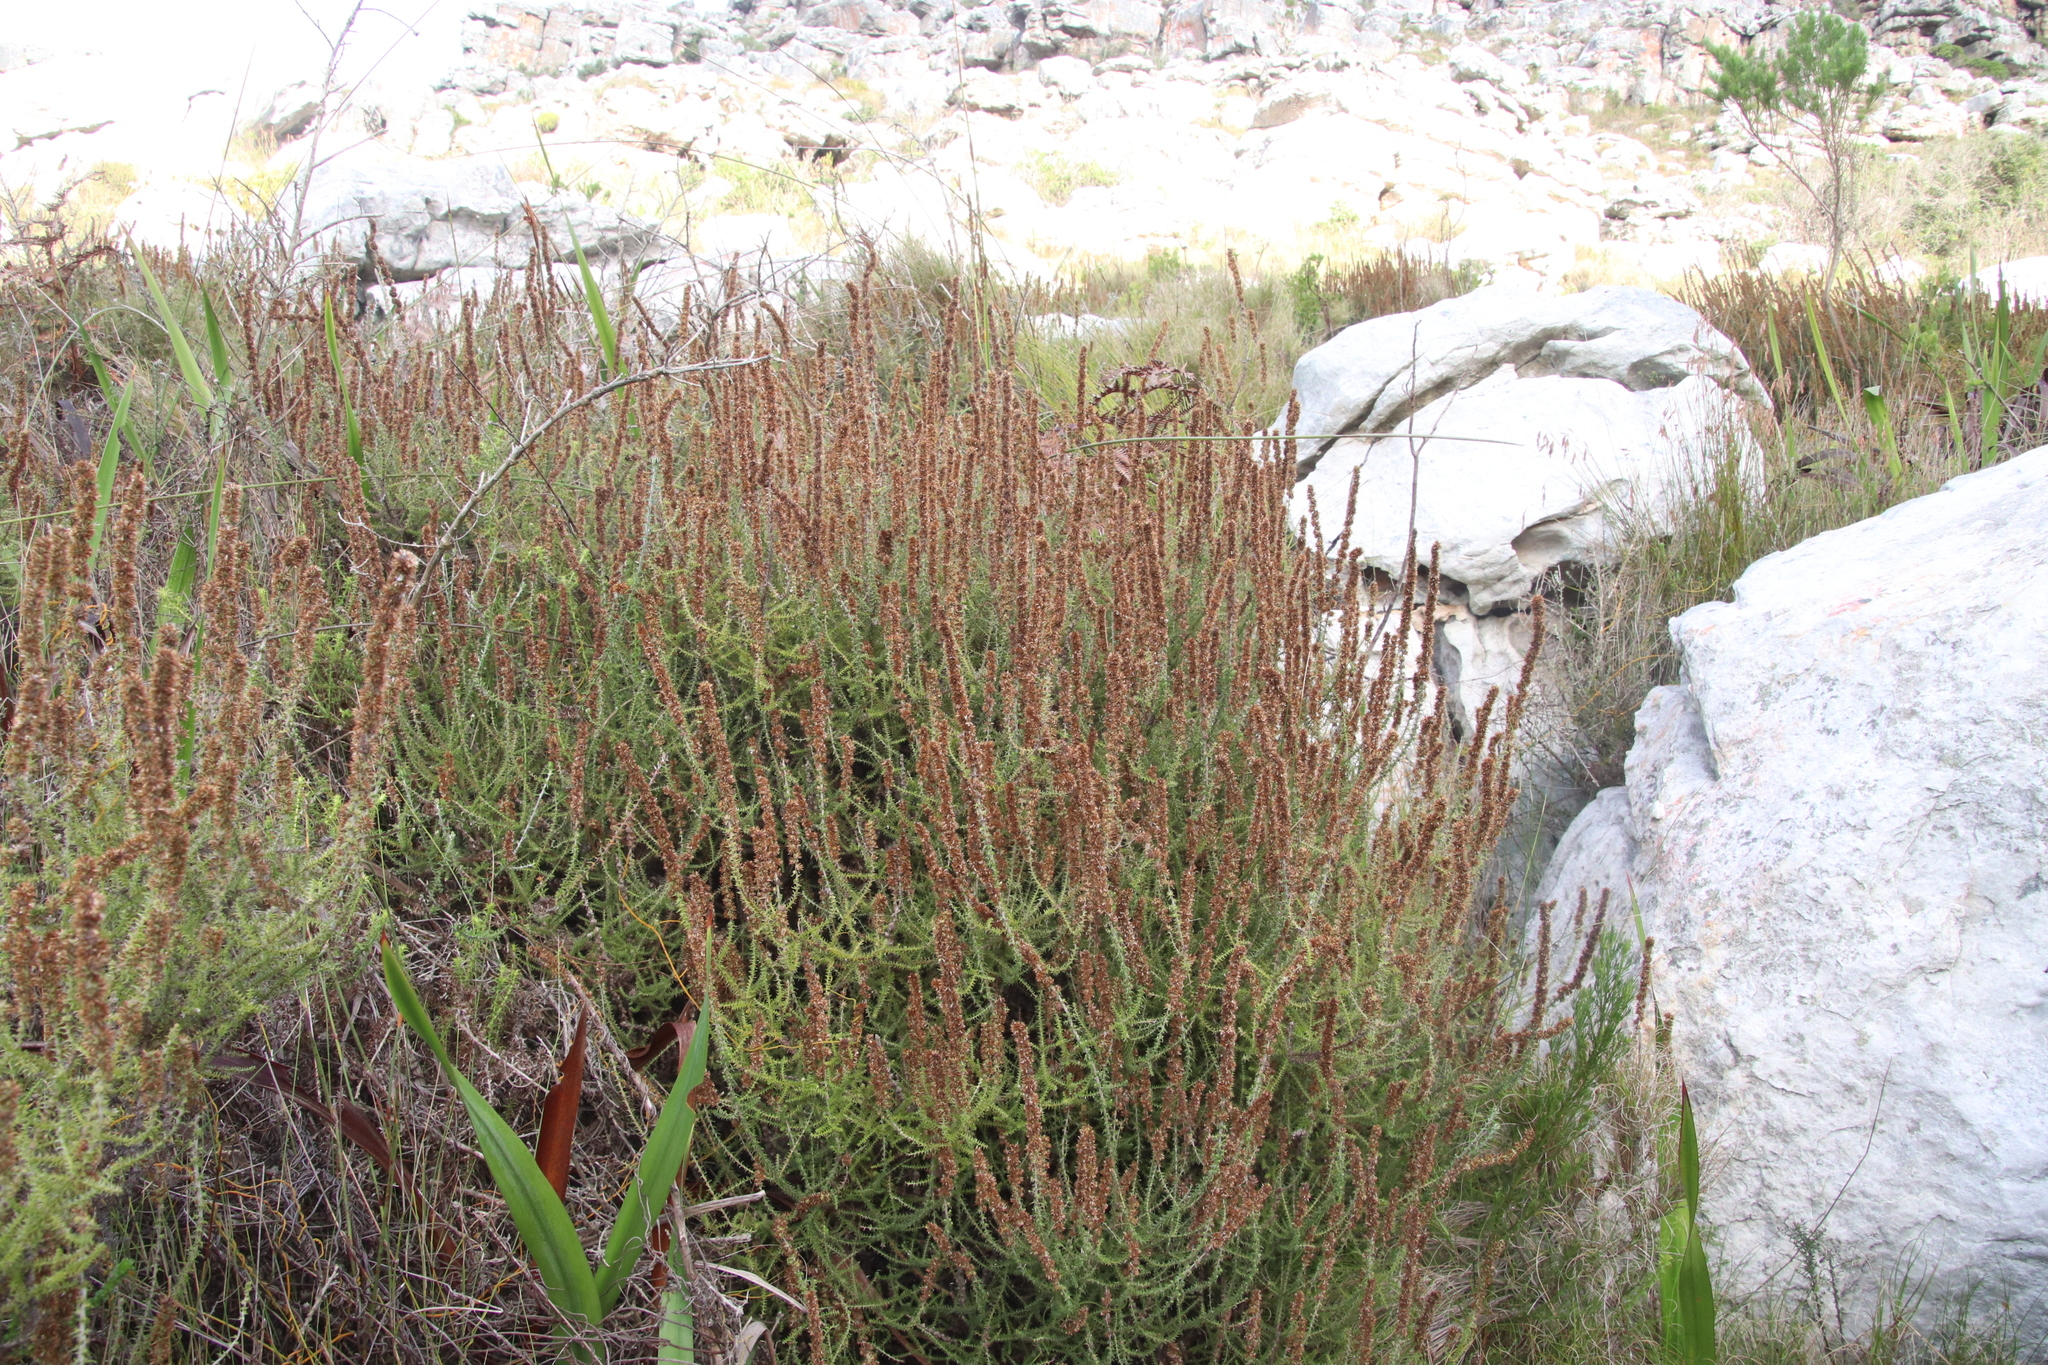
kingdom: Plantae
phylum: Tracheophyta
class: Magnoliopsida
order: Asterales
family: Asteraceae
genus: Seriphium
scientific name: Seriphium cinereum
